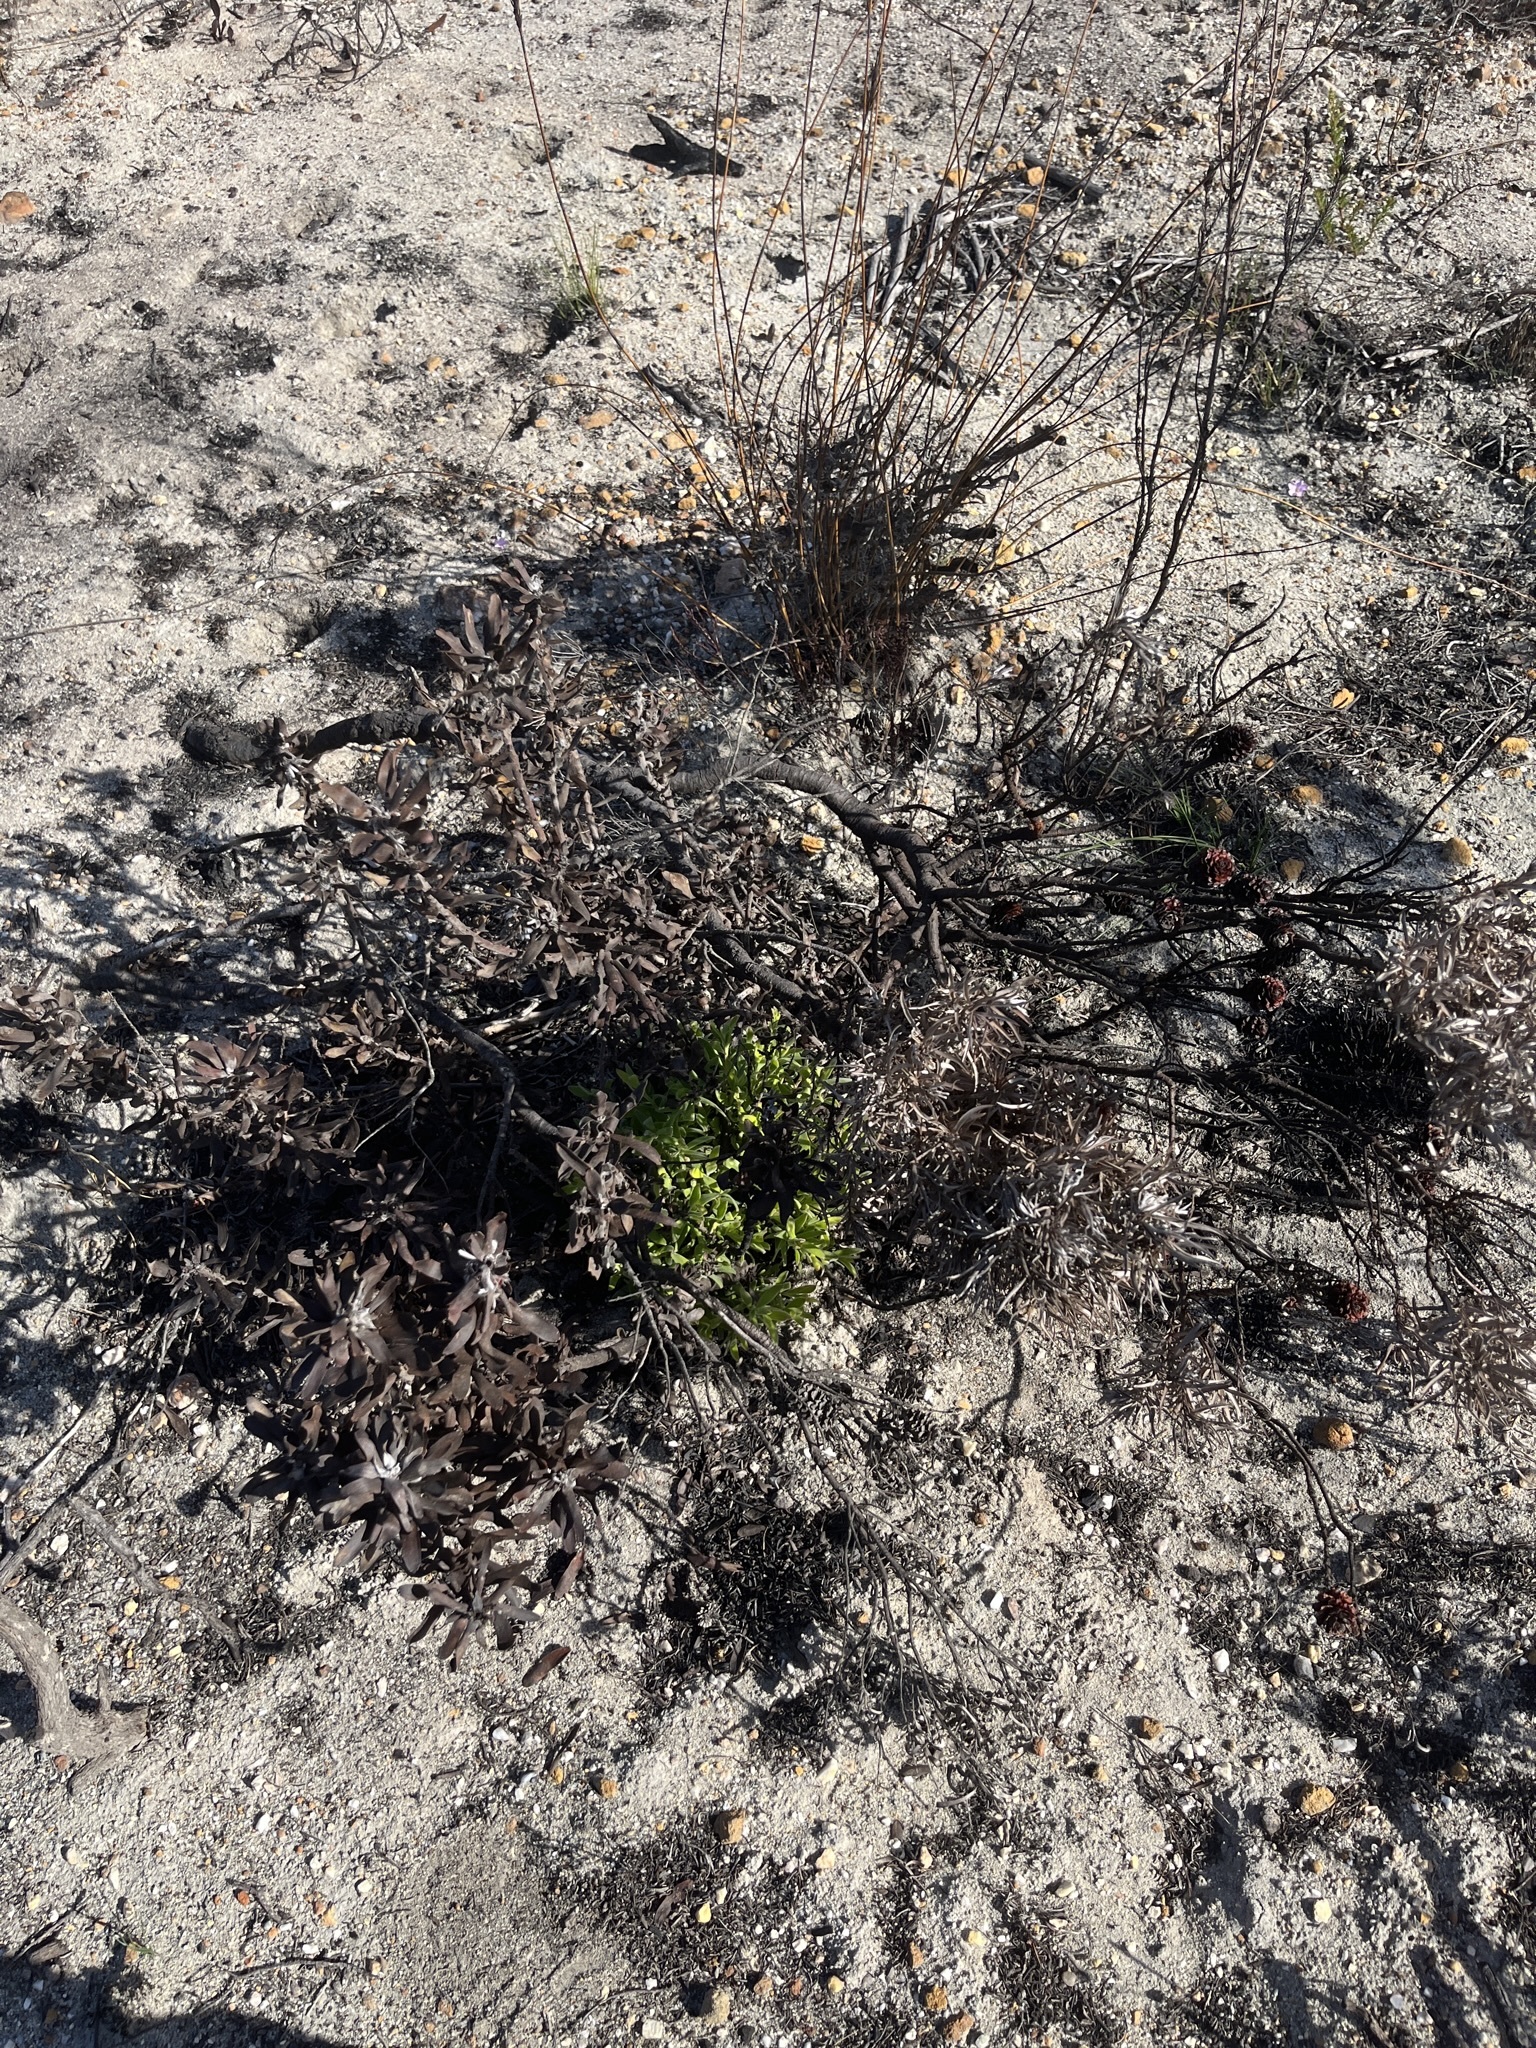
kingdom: Plantae
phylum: Tracheophyta
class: Magnoliopsida
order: Proteales
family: Proteaceae
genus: Leucospermum
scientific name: Leucospermum cuneiforme
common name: Common pincushion
